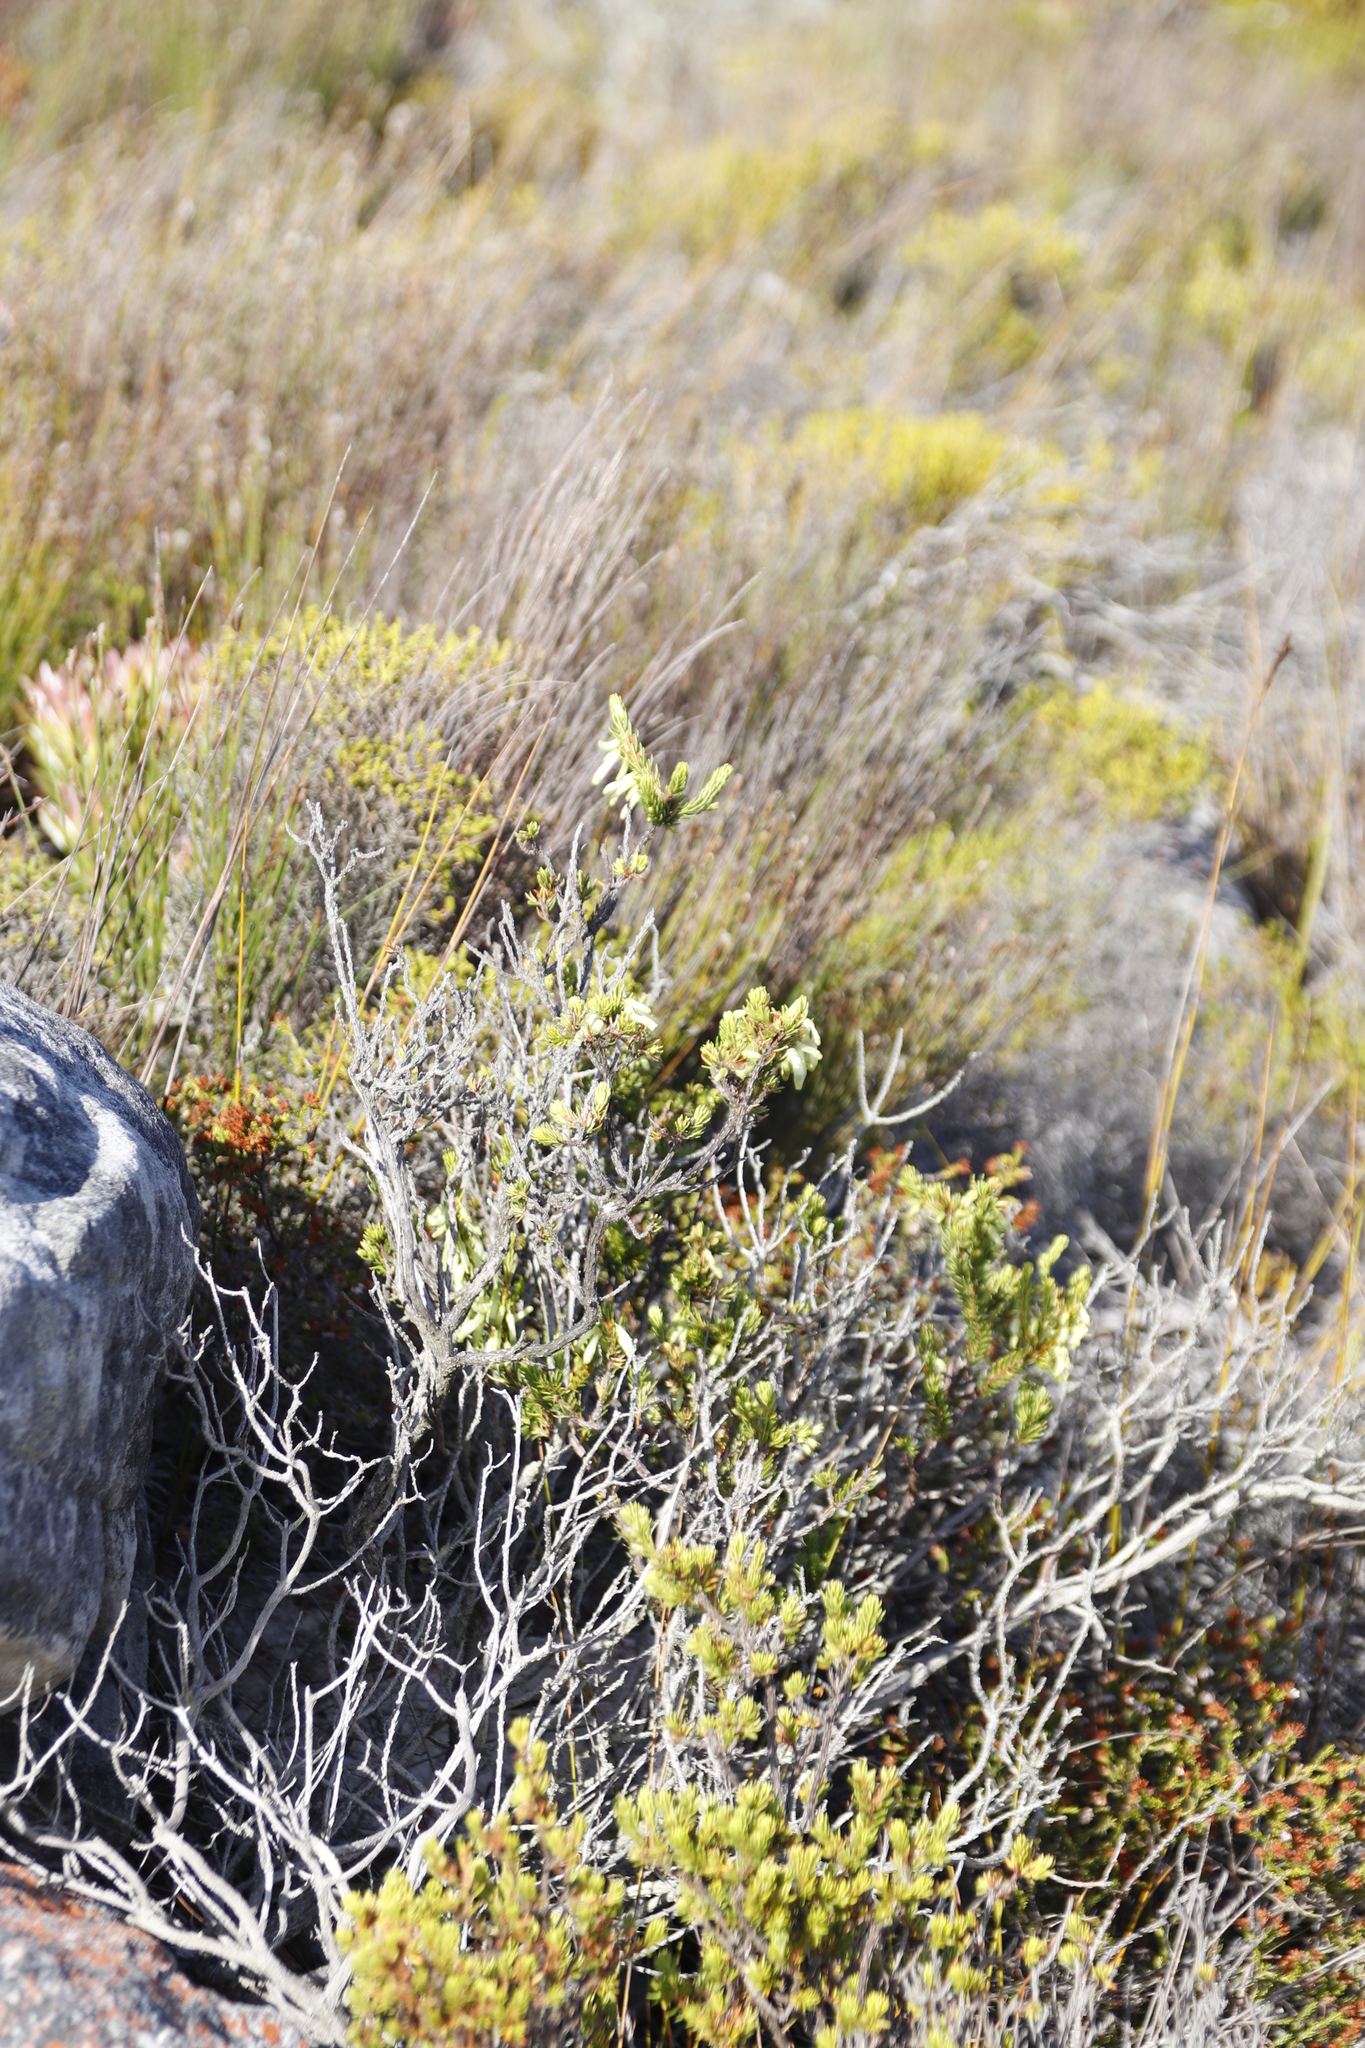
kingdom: Plantae
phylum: Tracheophyta
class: Magnoliopsida
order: Ericales
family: Ericaceae
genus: Erica
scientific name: Erica mammosa
